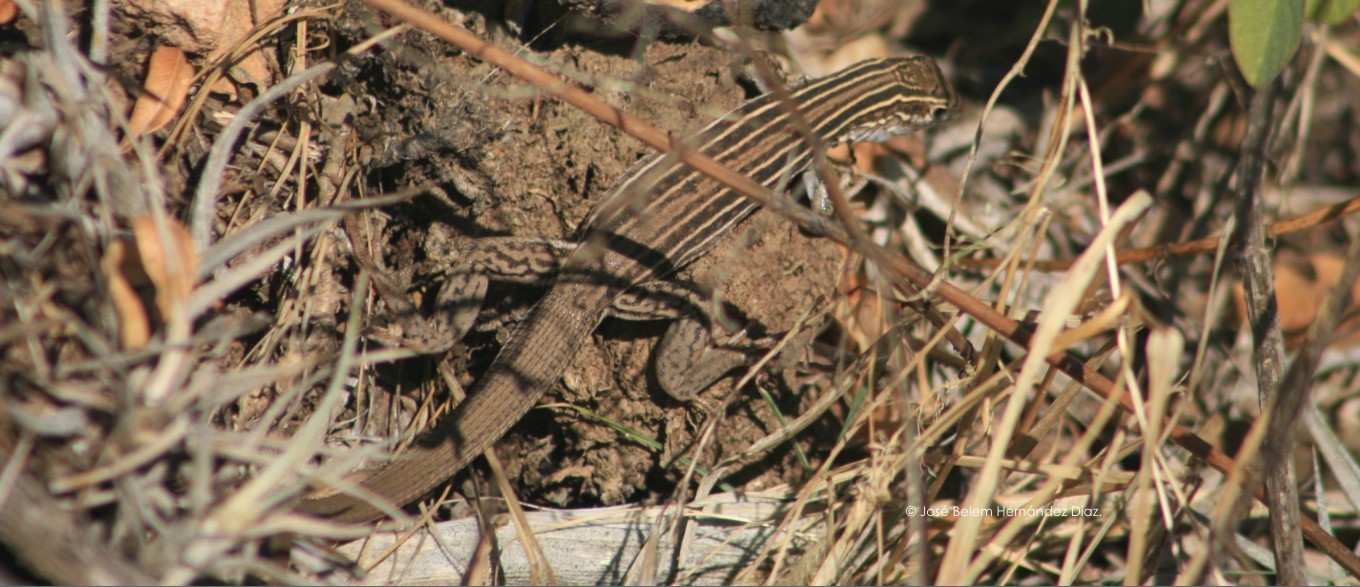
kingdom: Animalia
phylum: Chordata
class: Squamata
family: Teiidae
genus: Aspidoscelis
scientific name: Aspidoscelis gularis
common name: Eastern spotted whiptail
